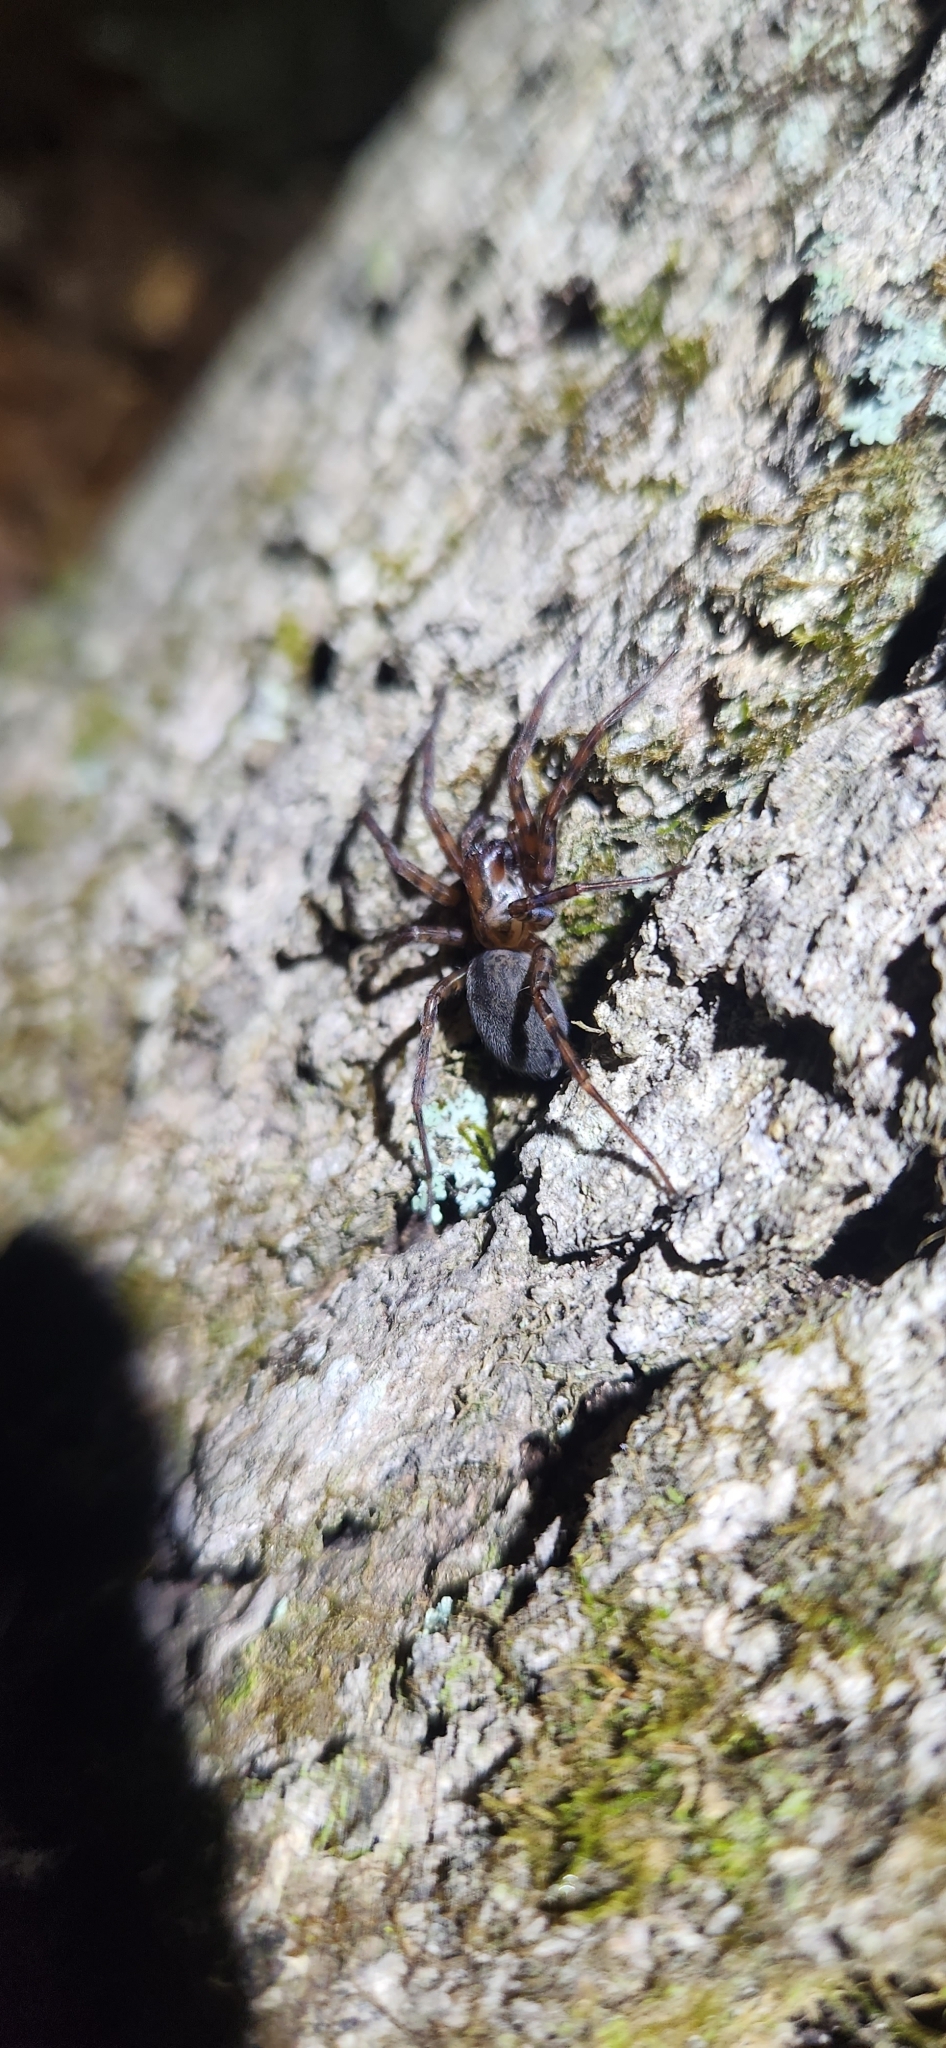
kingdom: Animalia
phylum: Arthropoda
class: Arachnida
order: Araneae
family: Agelenidae
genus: Coras
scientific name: Coras
